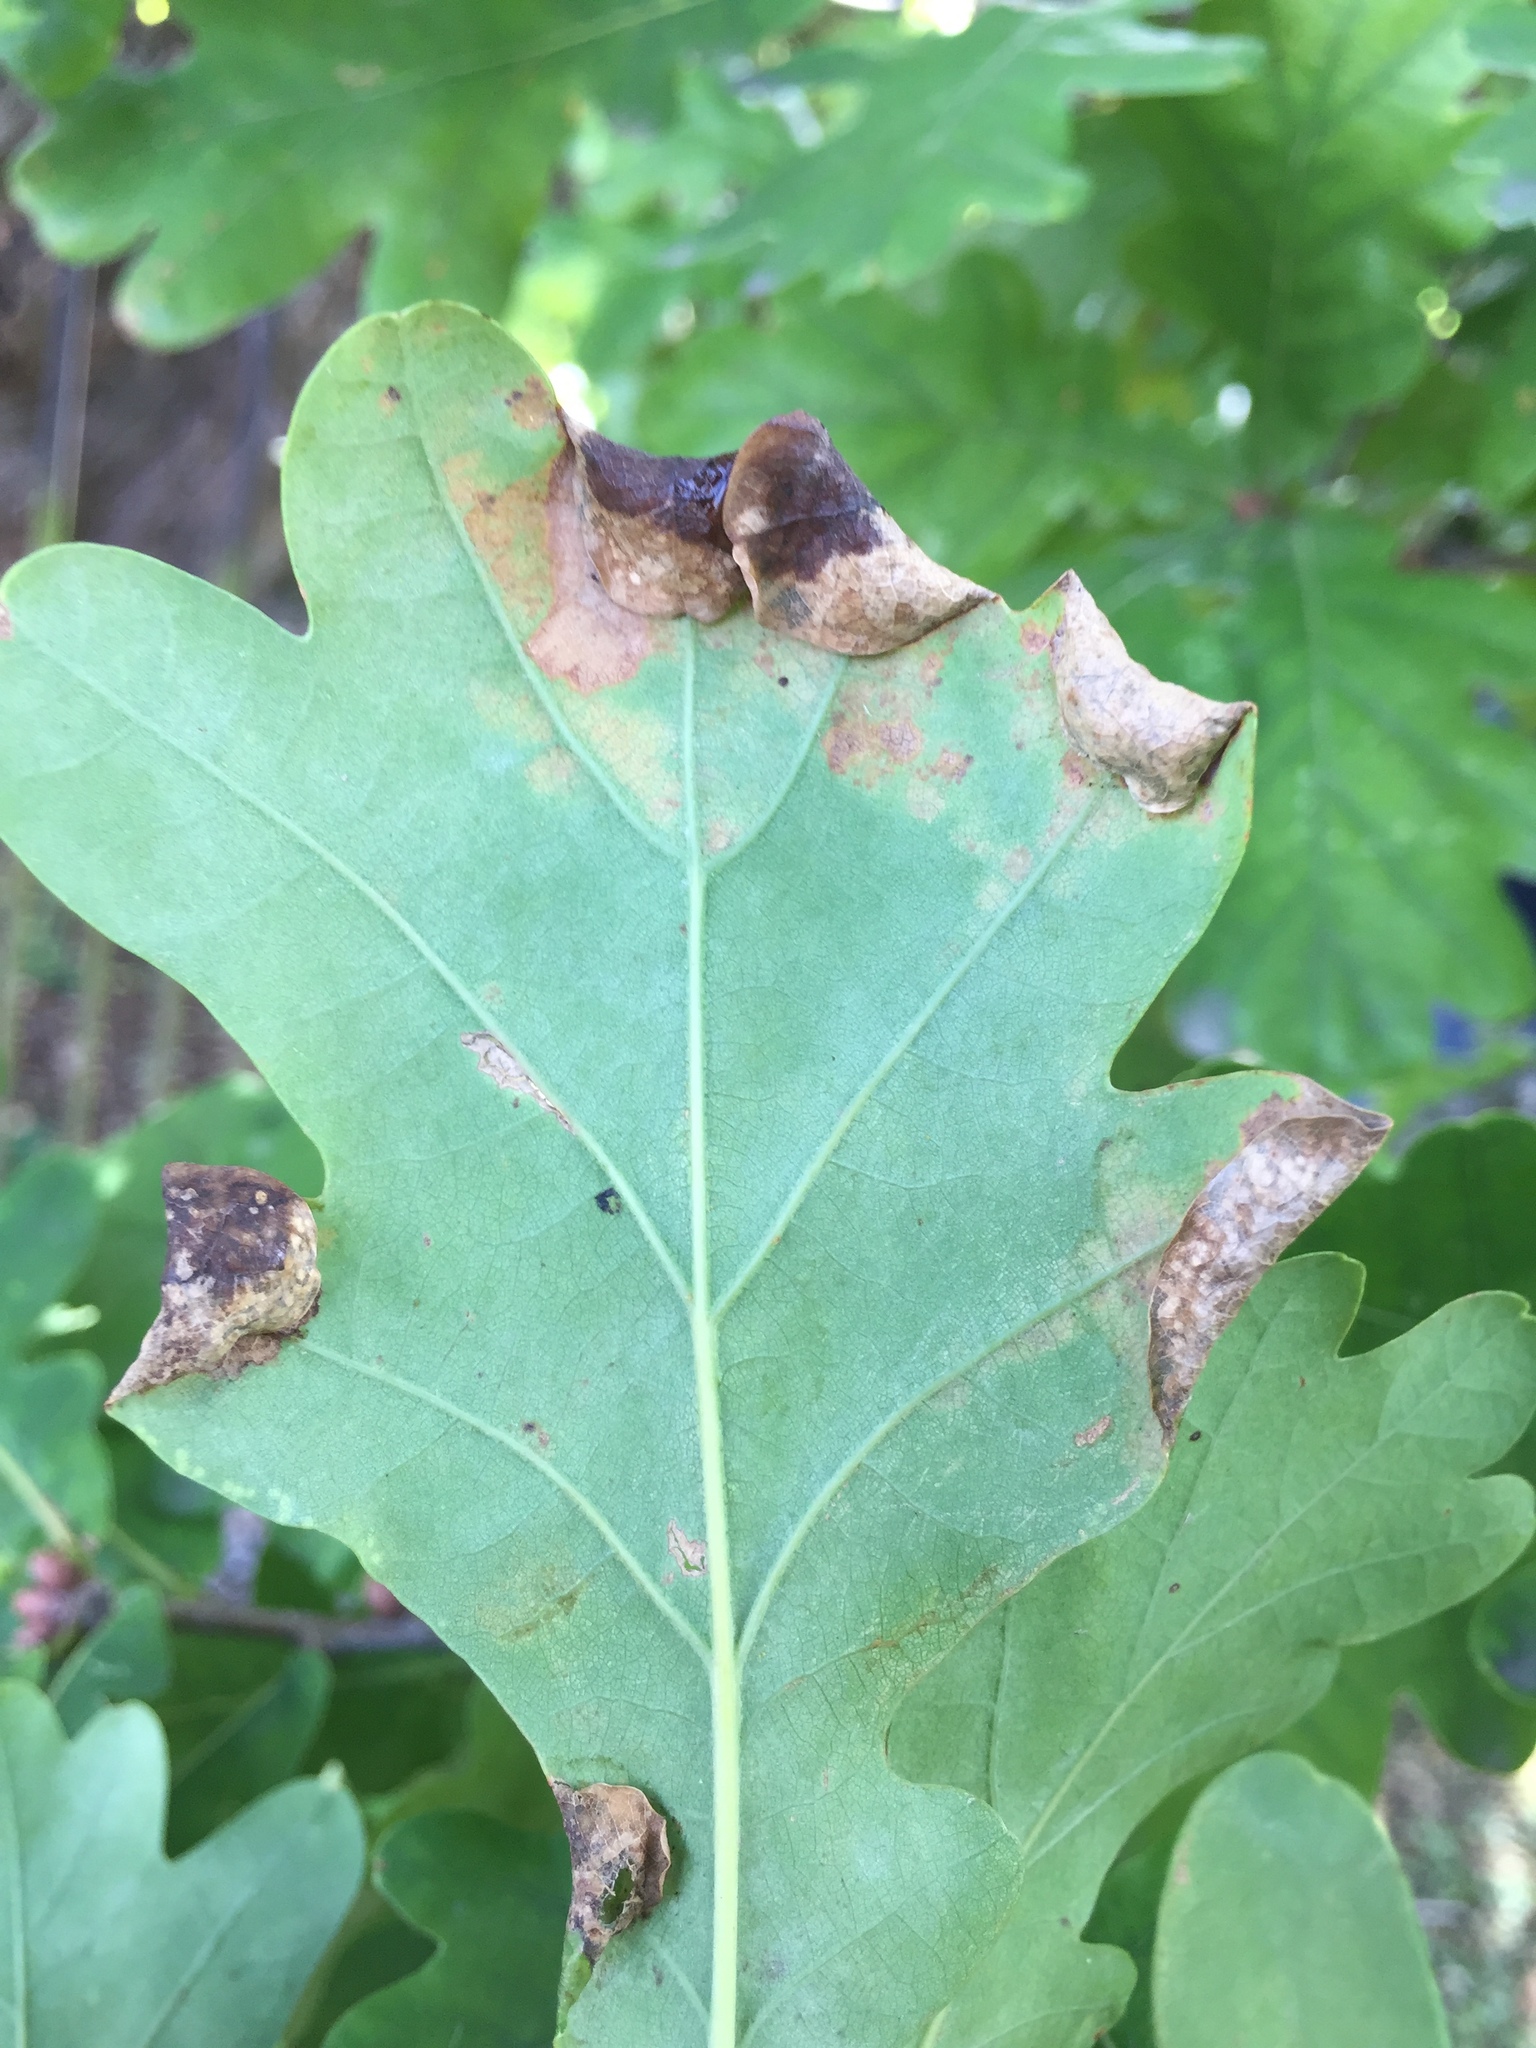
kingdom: Animalia
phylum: Arthropoda
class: Insecta
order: Diptera
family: Cecidomyiidae
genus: Macrodiplosis
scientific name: Macrodiplosis pustularis
